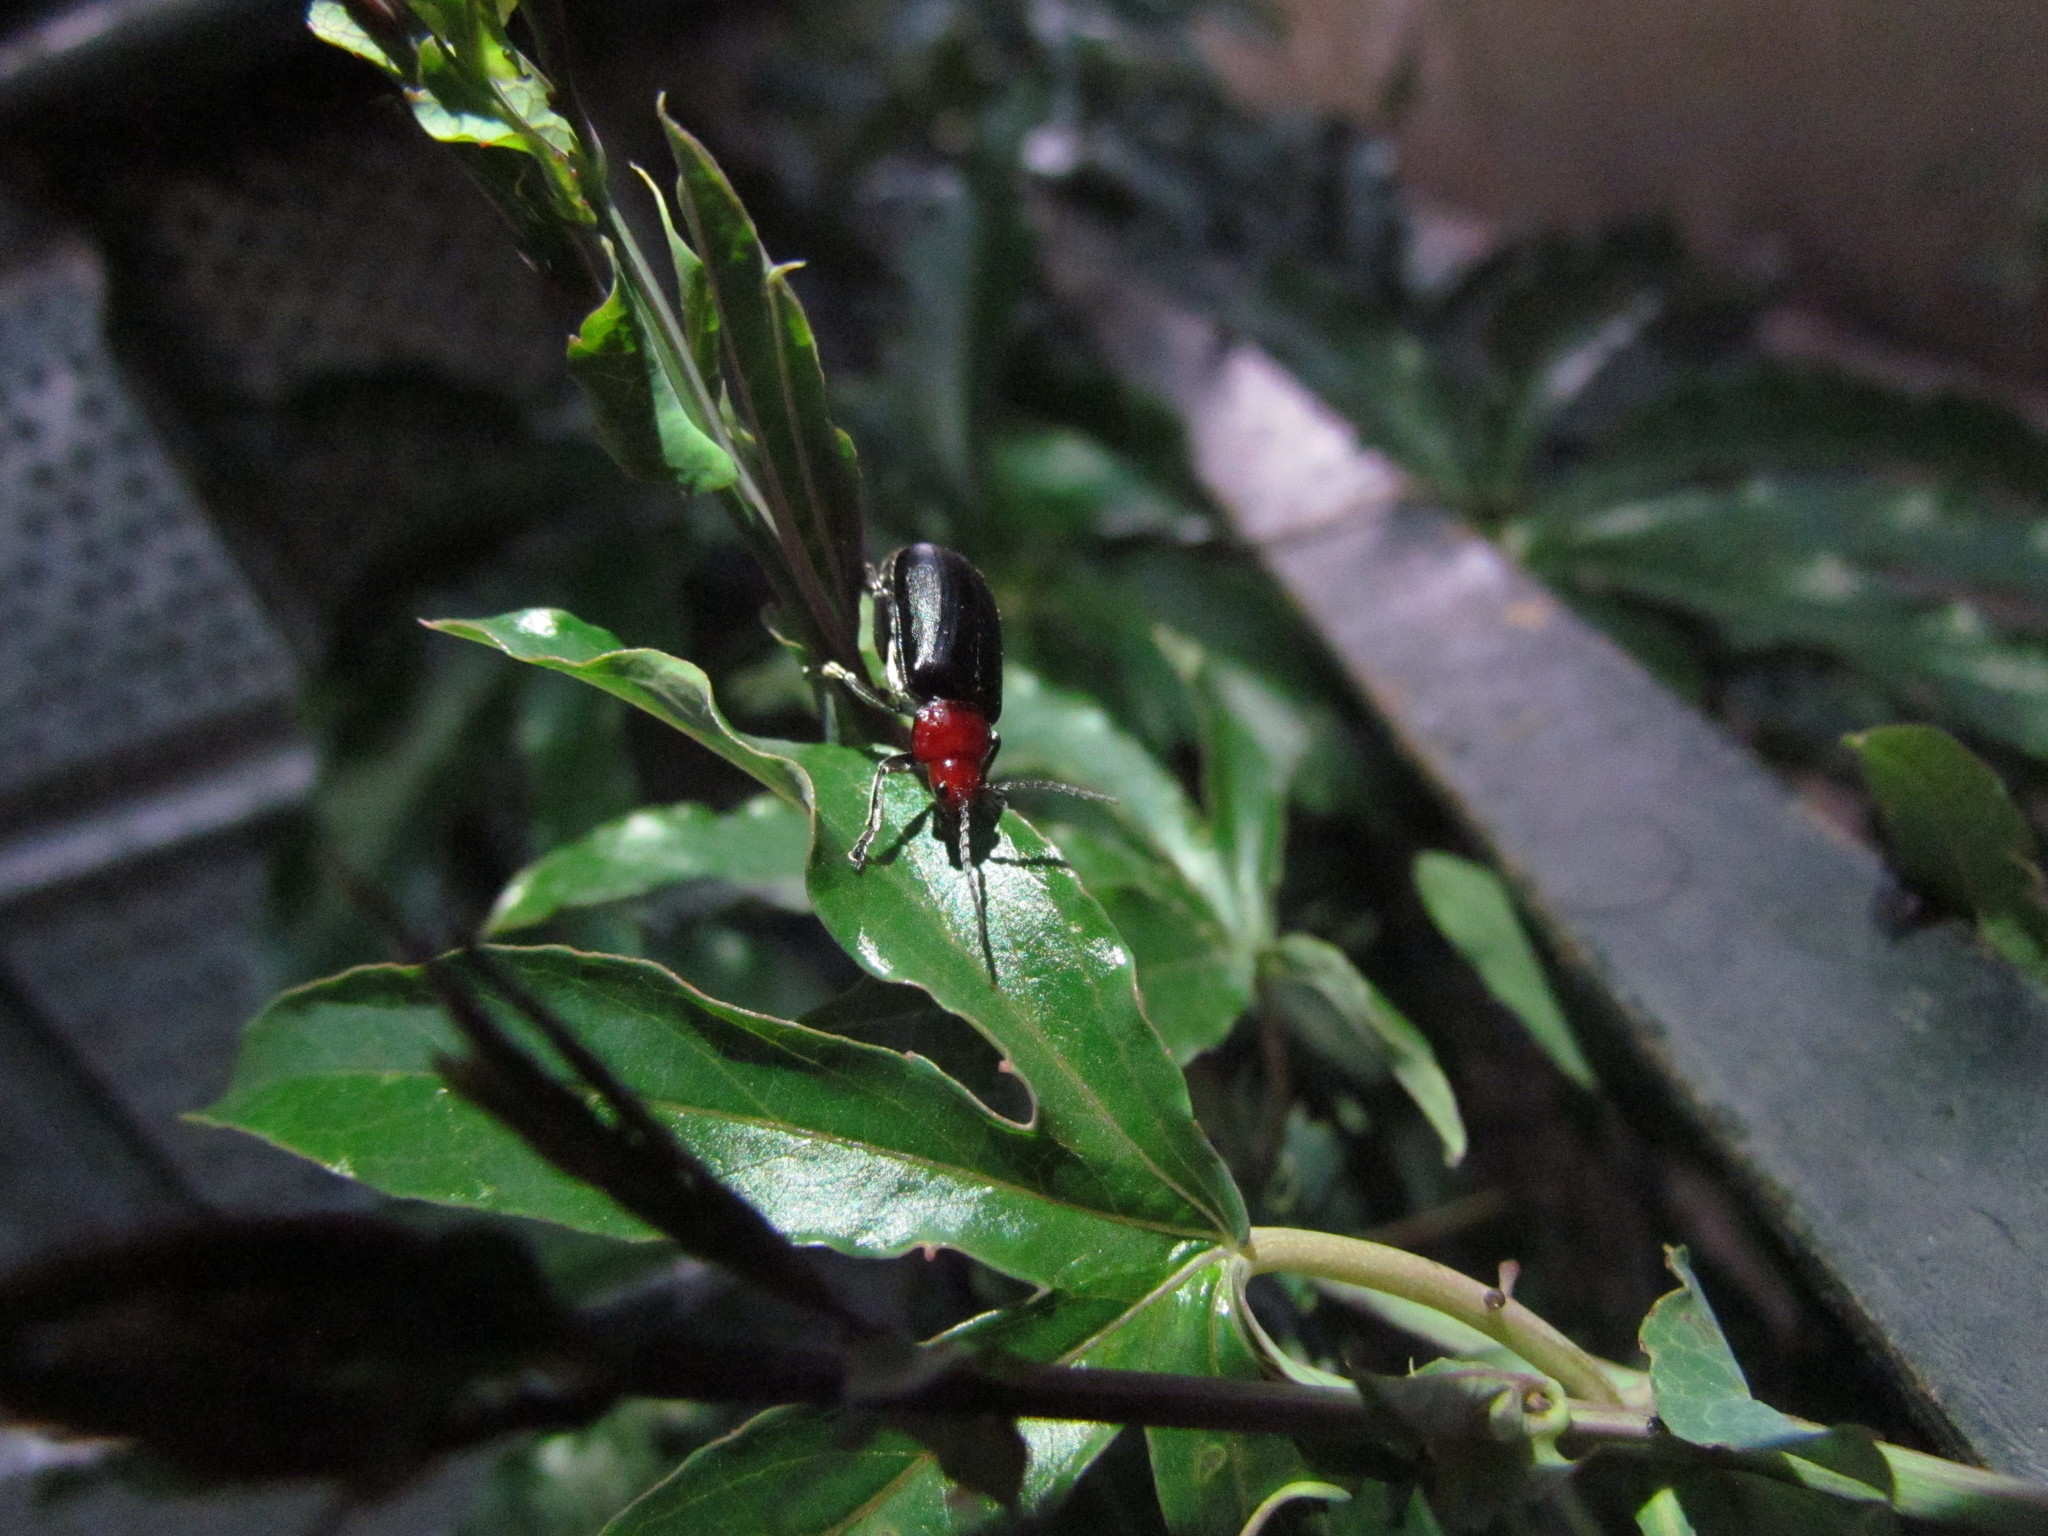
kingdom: Animalia
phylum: Arthropoda
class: Insecta
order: Coleoptera
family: Chrysomelidae
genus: Cacoscelis
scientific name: Cacoscelis
